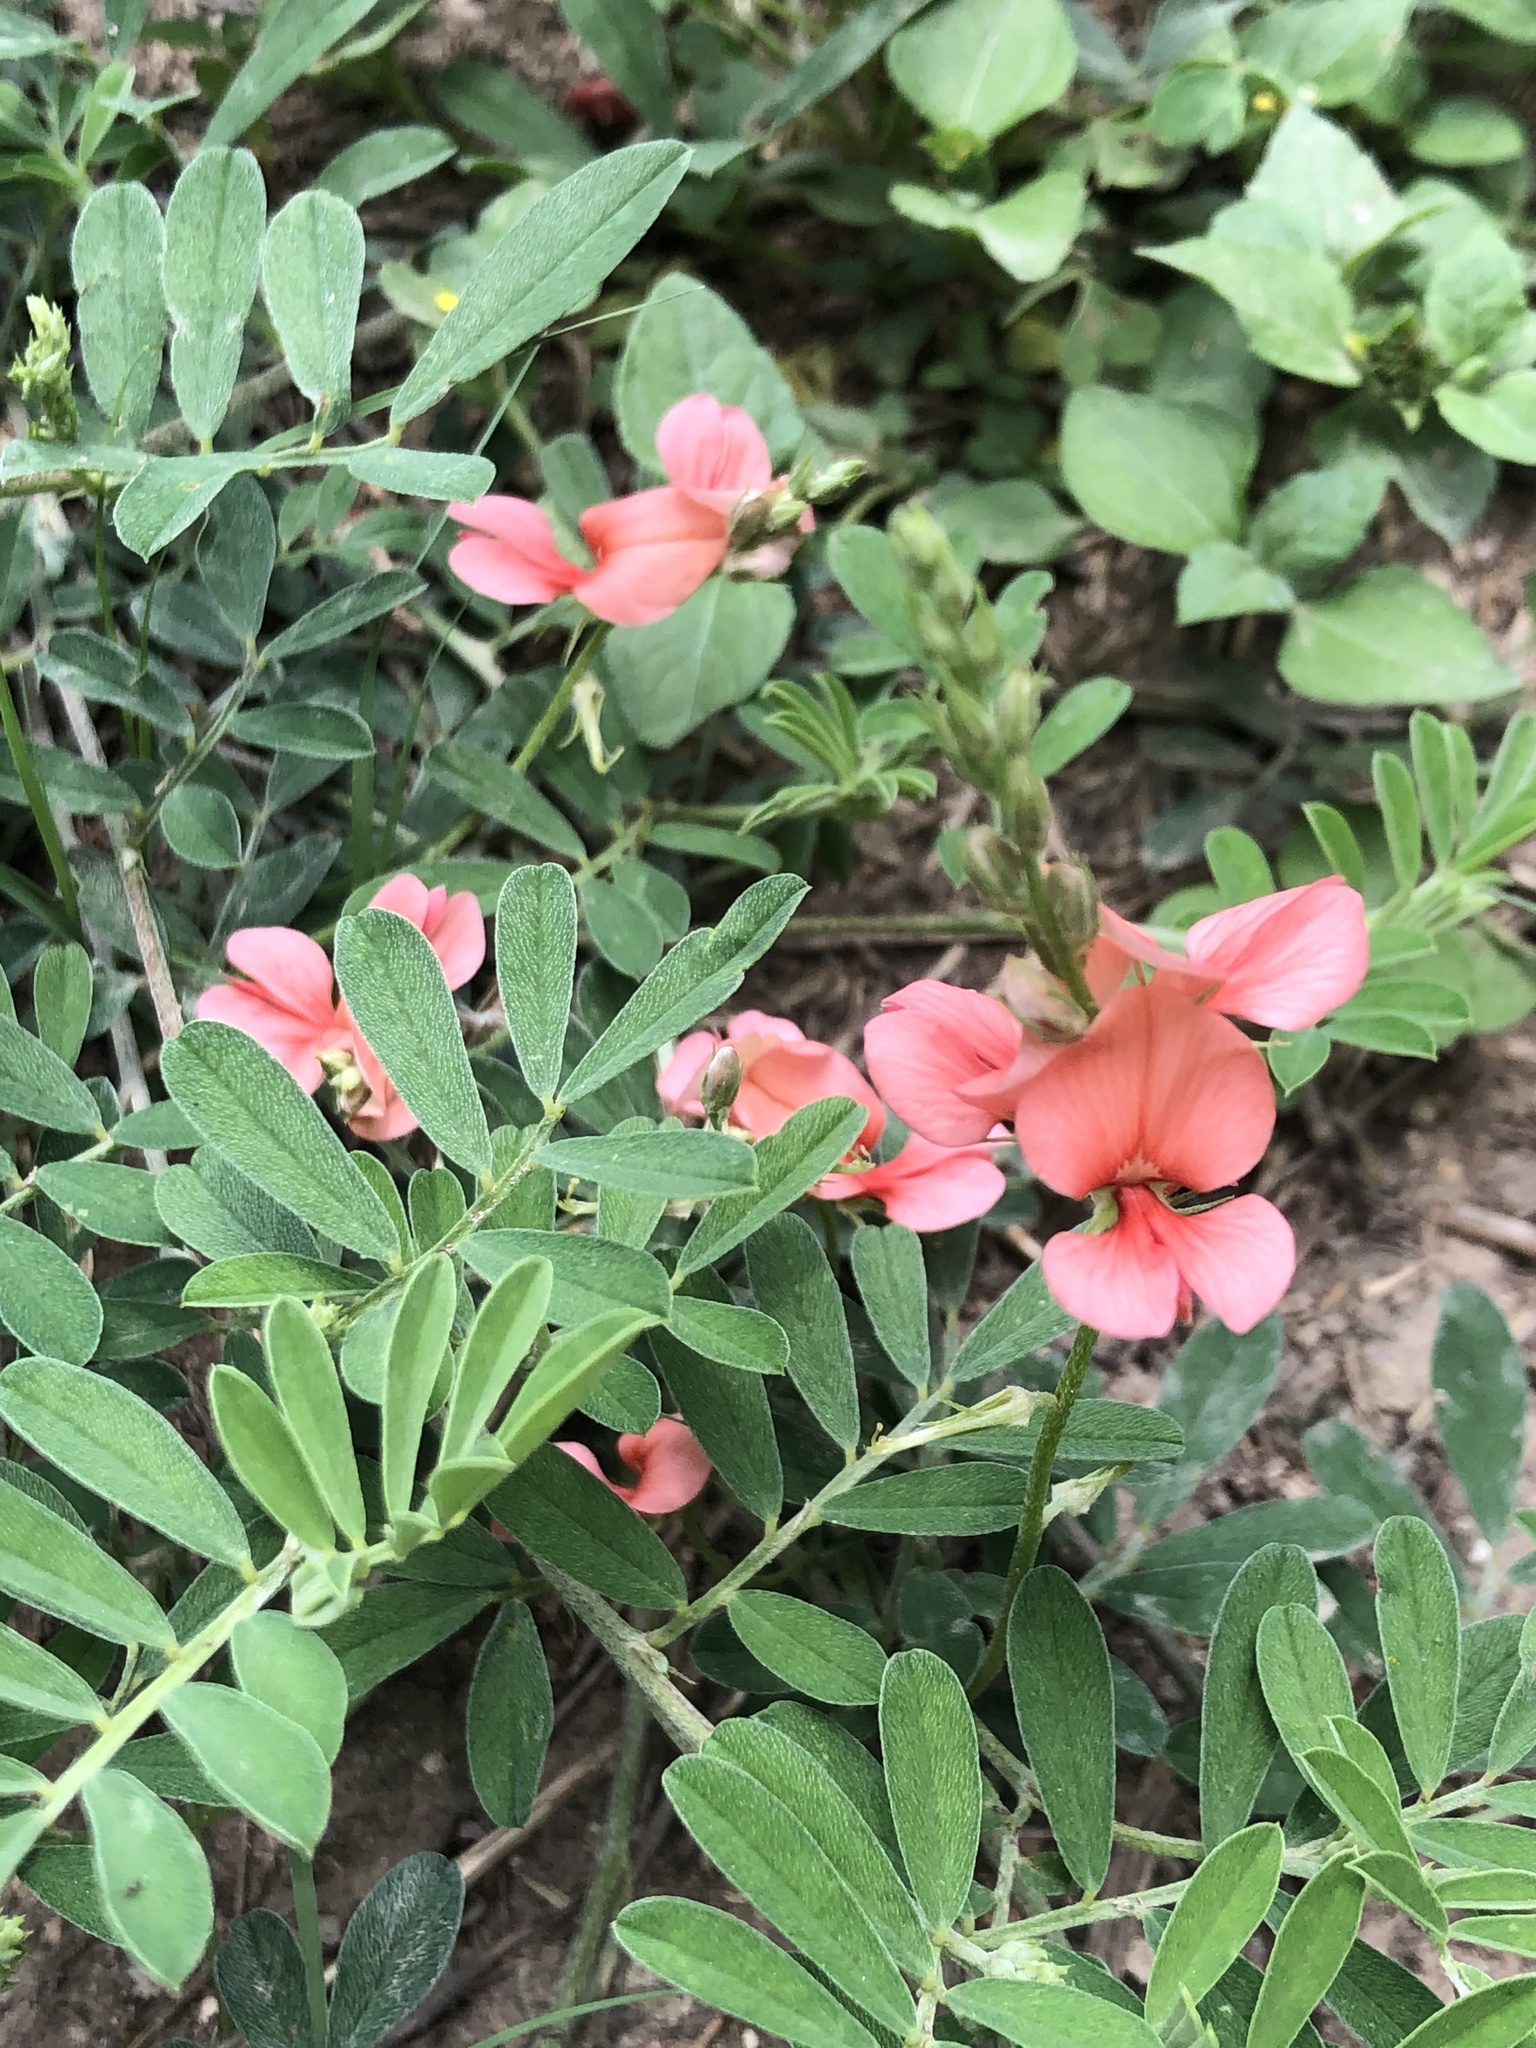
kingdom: Plantae
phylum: Tracheophyta
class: Magnoliopsida
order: Fabales
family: Fabaceae
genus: Indigofera
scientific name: Indigofera miniata
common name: Coast indigo
